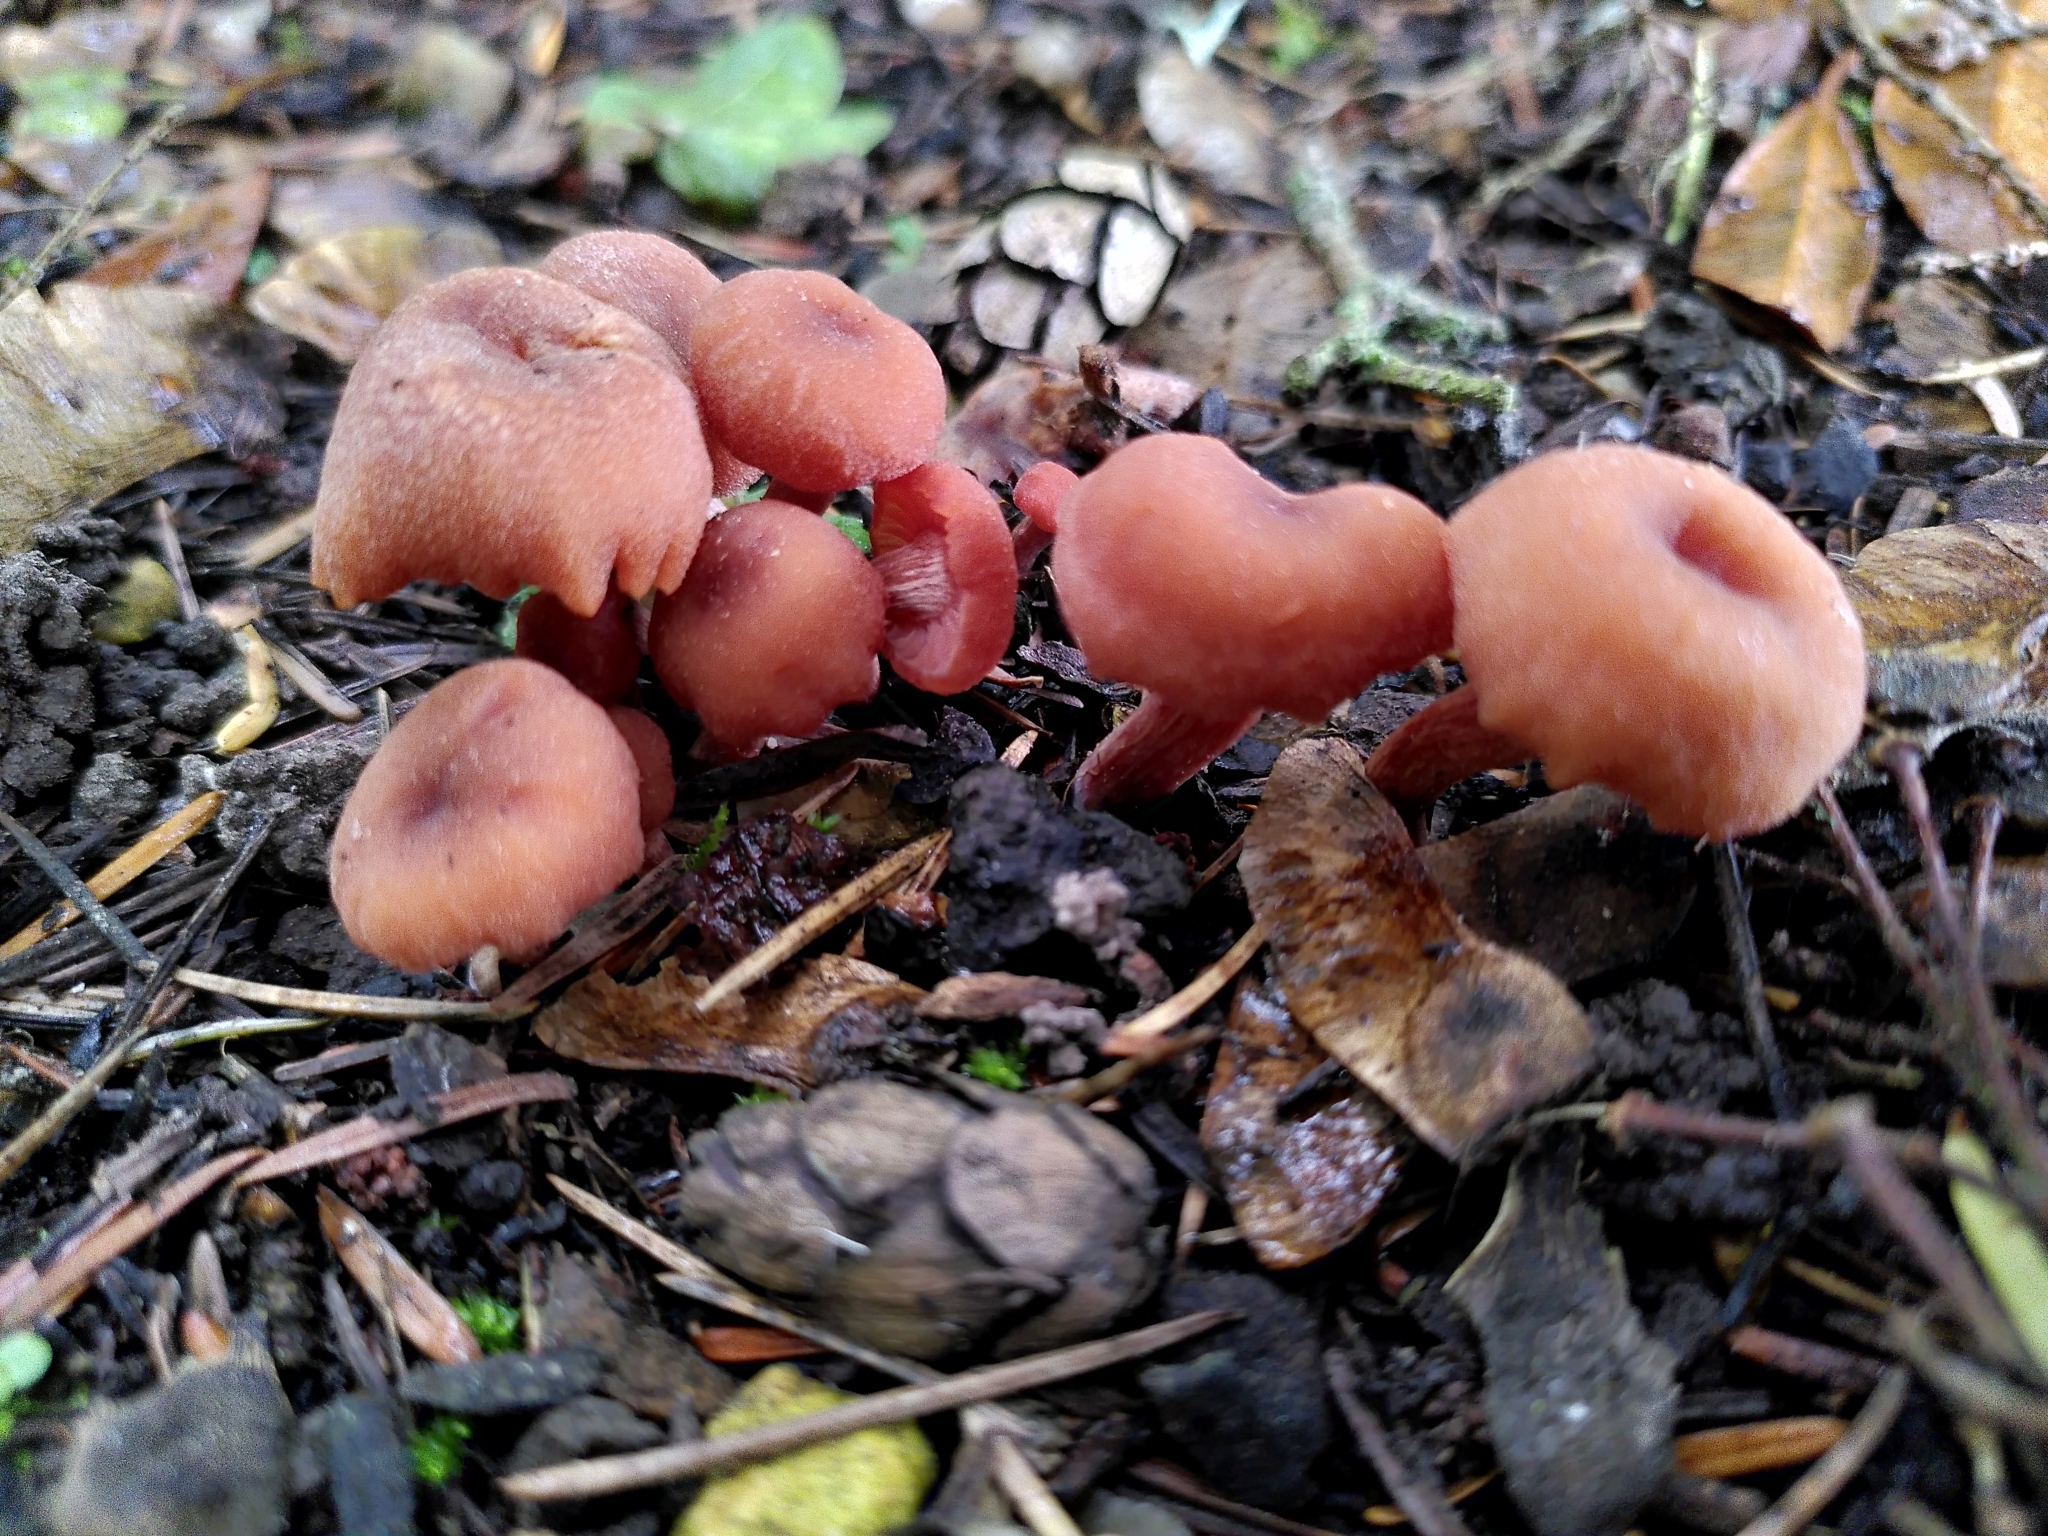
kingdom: Fungi
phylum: Basidiomycota
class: Agaricomycetes
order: Agaricales
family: Hydnangiaceae
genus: Laccaria
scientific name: Laccaria laccata
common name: Deceiver
